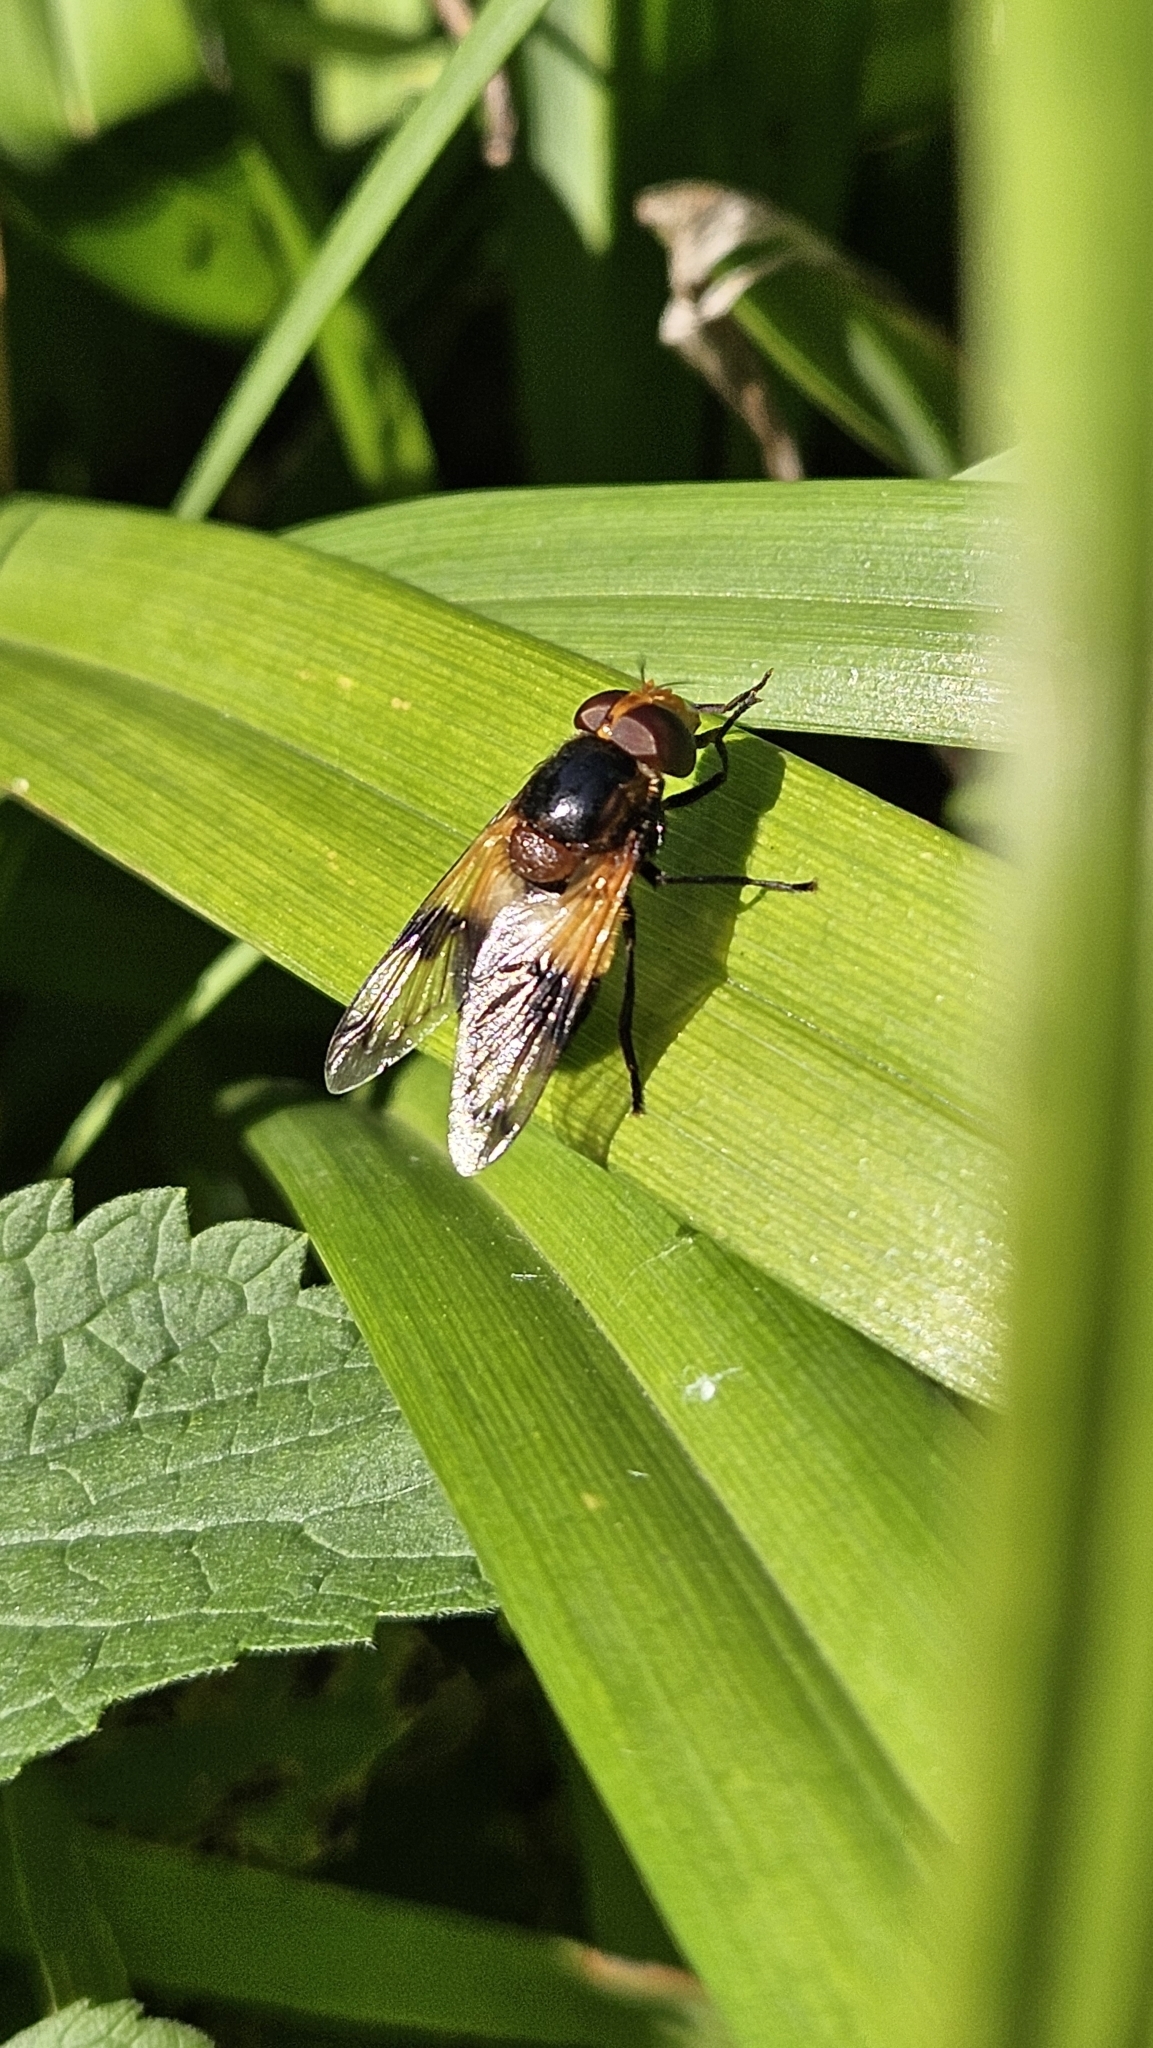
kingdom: Animalia
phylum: Arthropoda
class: Insecta
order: Diptera
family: Syrphidae
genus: Volucella
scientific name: Volucella pellucens
